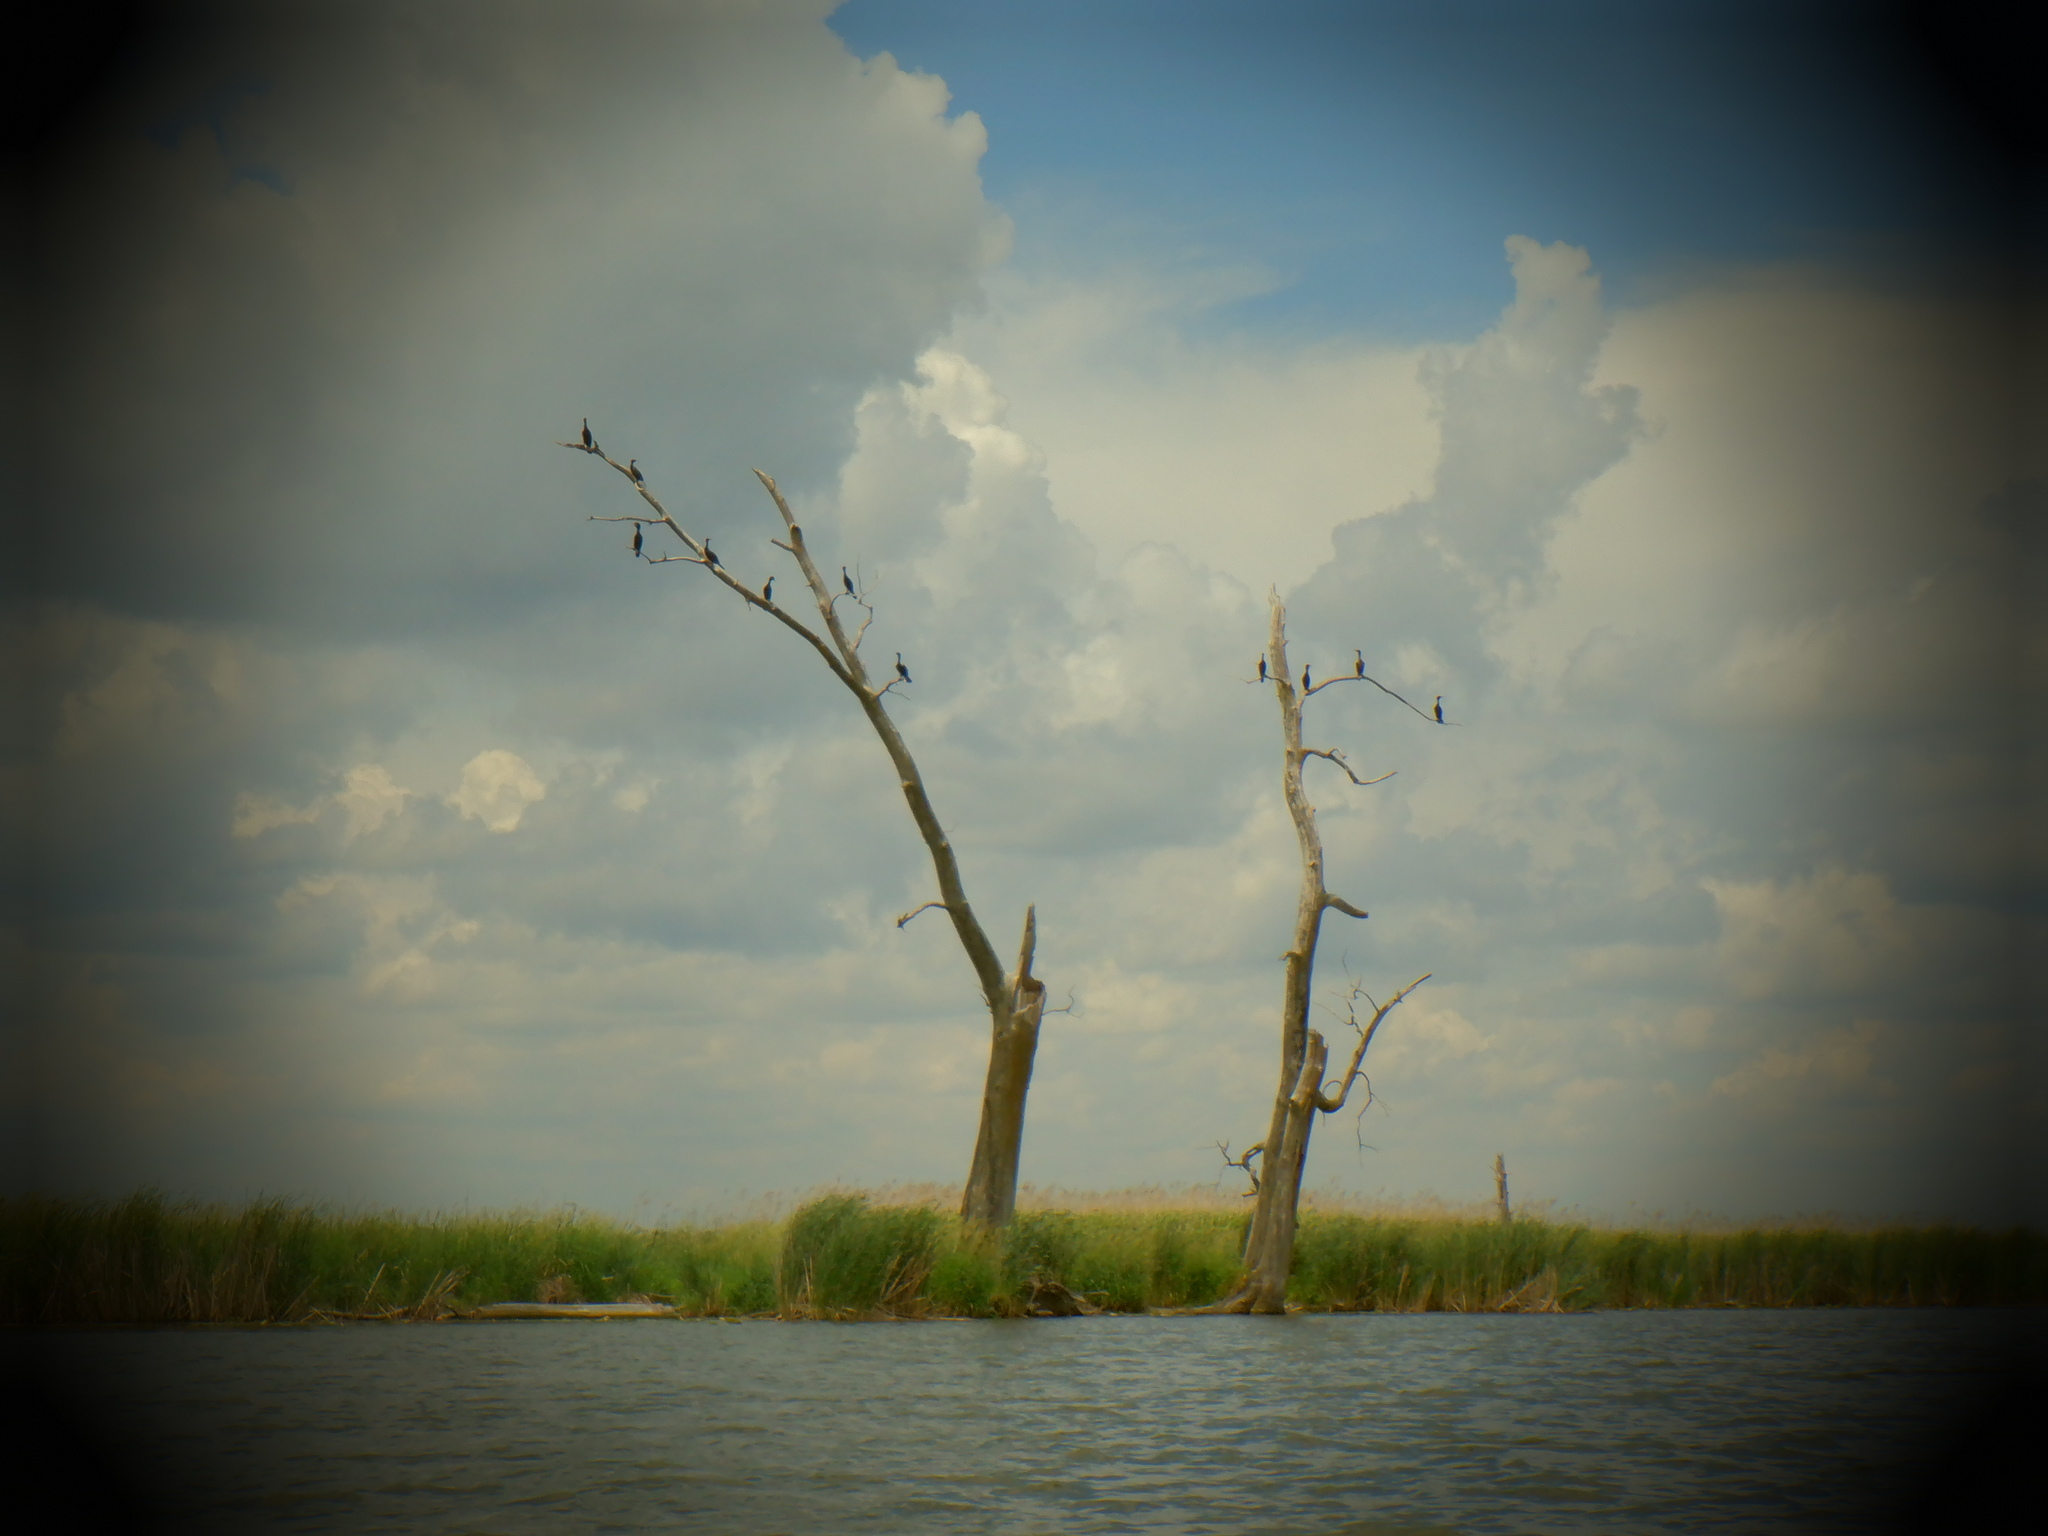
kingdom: Animalia
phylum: Chordata
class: Aves
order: Suliformes
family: Phalacrocoracidae
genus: Phalacrocorax
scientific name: Phalacrocorax auritus
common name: Double-crested cormorant
